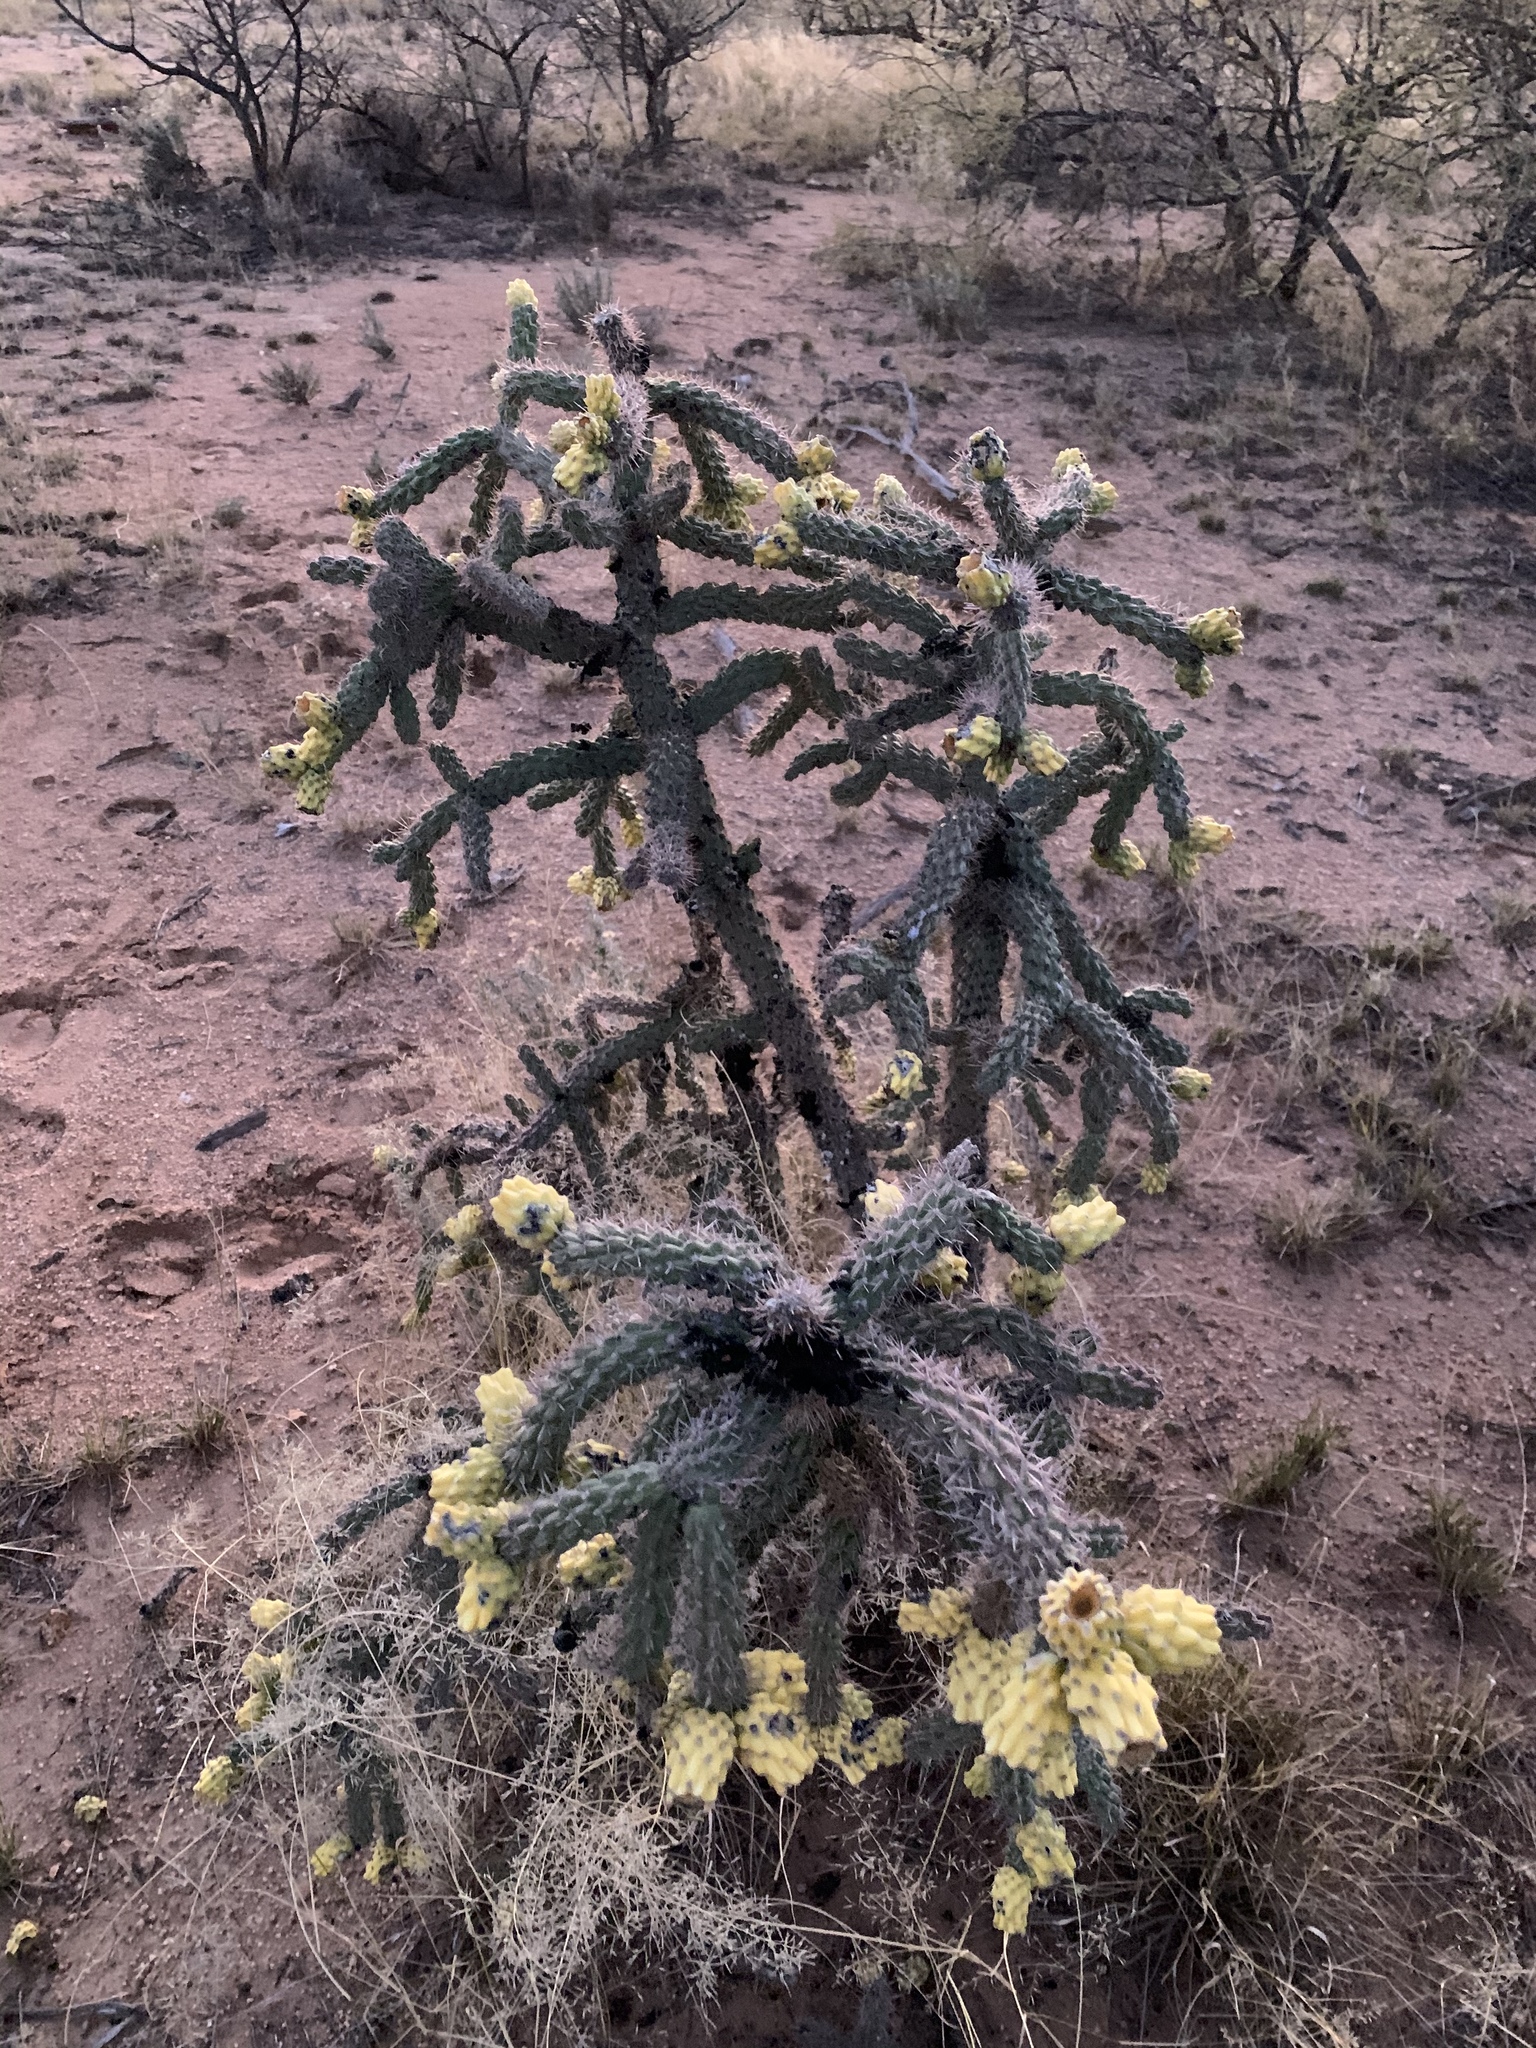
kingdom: Plantae
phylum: Tracheophyta
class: Magnoliopsida
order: Caryophyllales
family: Cactaceae
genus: Cylindropuntia
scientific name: Cylindropuntia imbricata
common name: Candelabrum cactus
